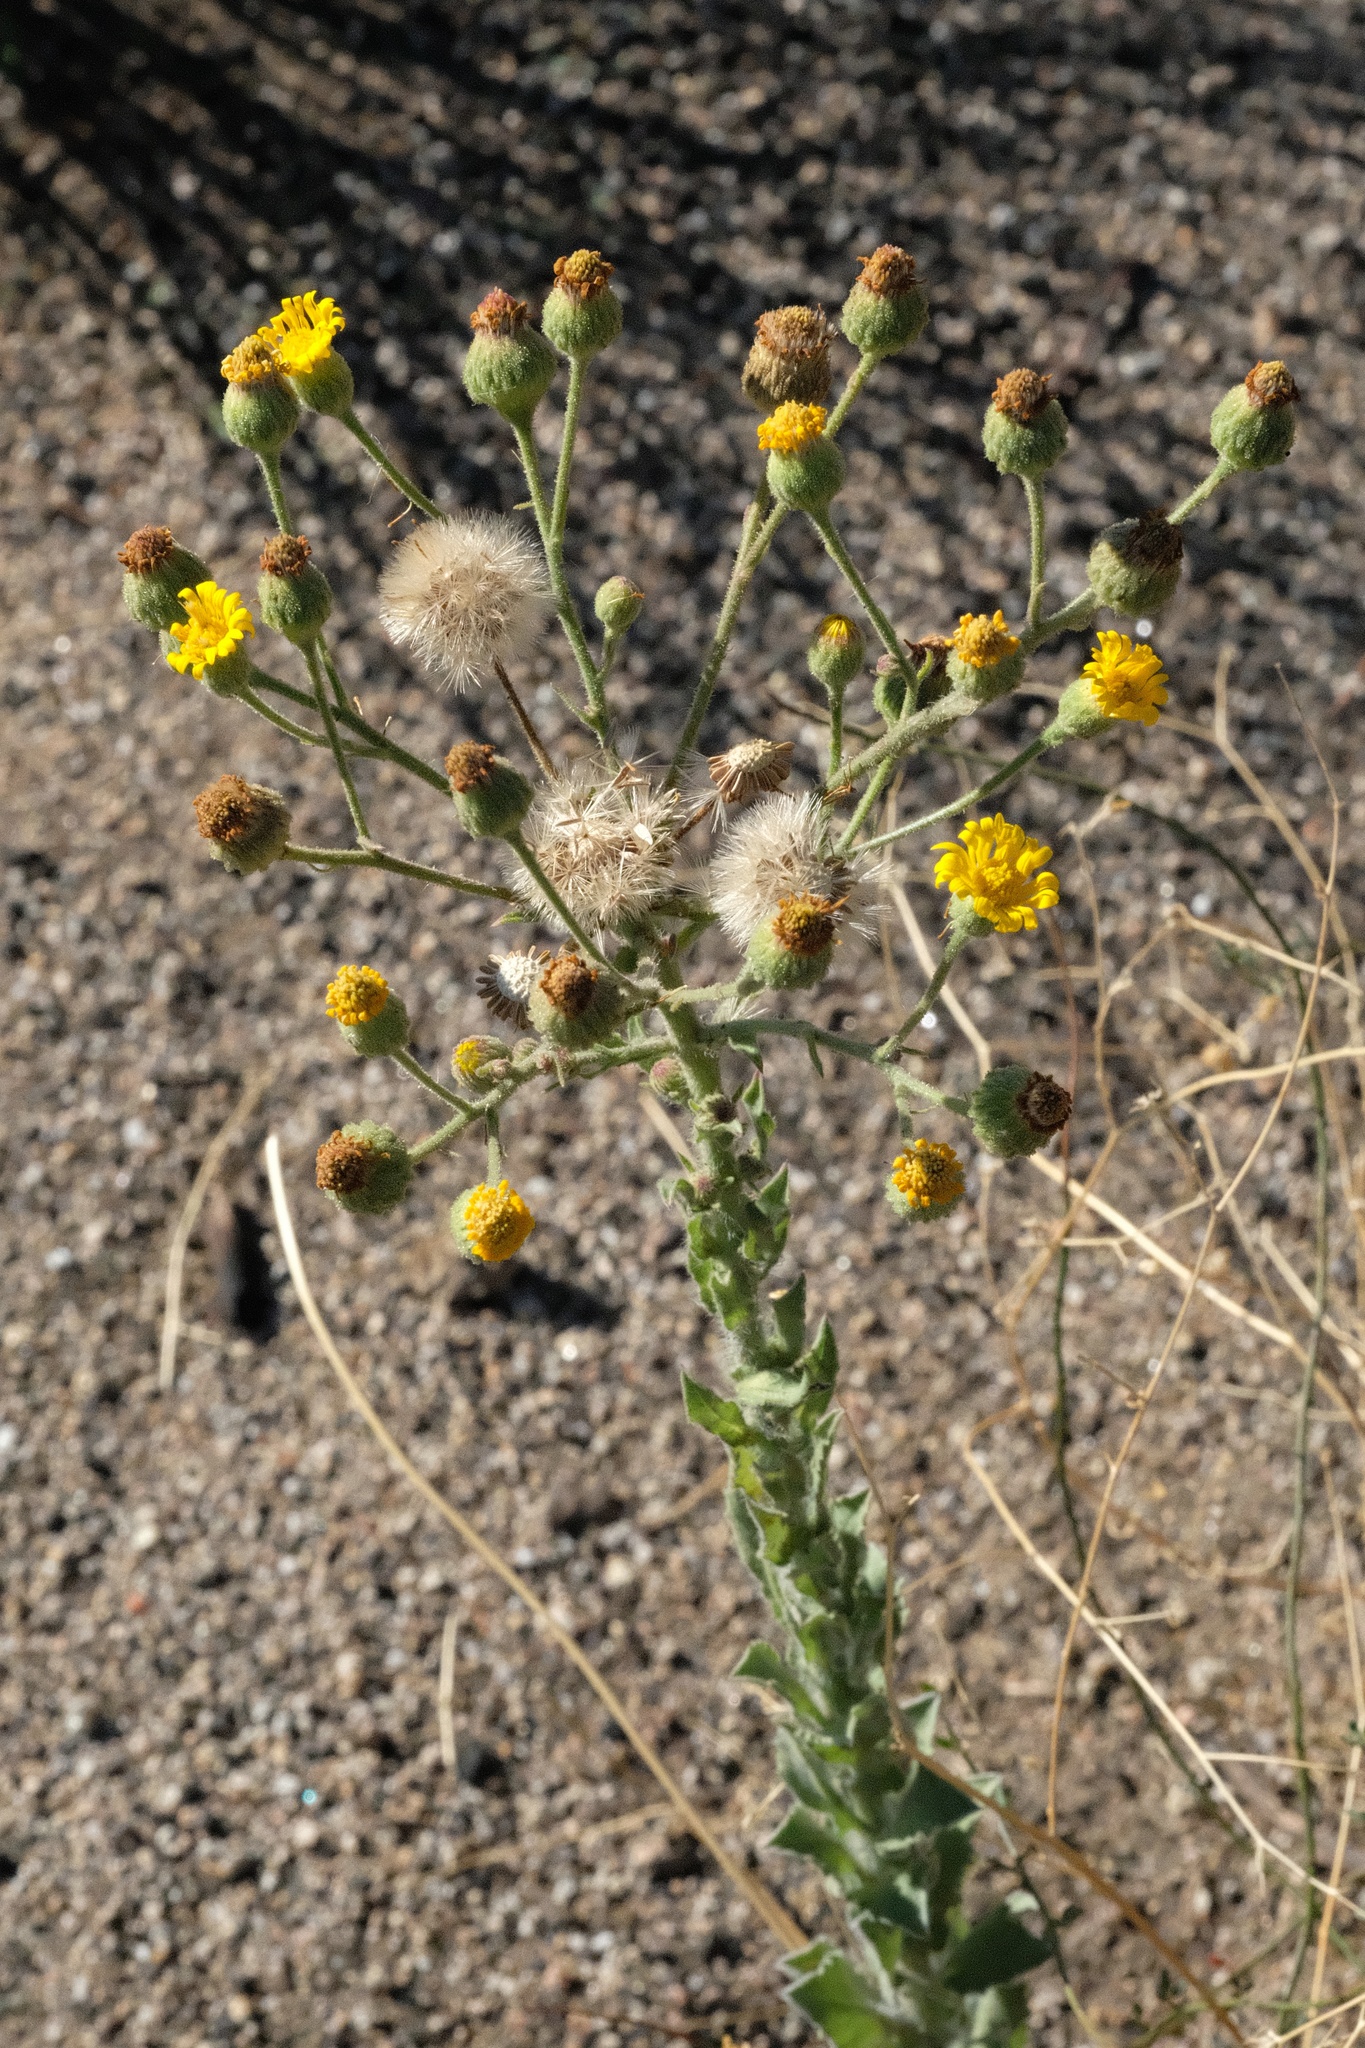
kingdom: Plantae
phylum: Tracheophyta
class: Magnoliopsida
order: Asterales
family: Asteraceae
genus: Heterotheca
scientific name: Heterotheca grandiflora
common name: Telegraphweed
